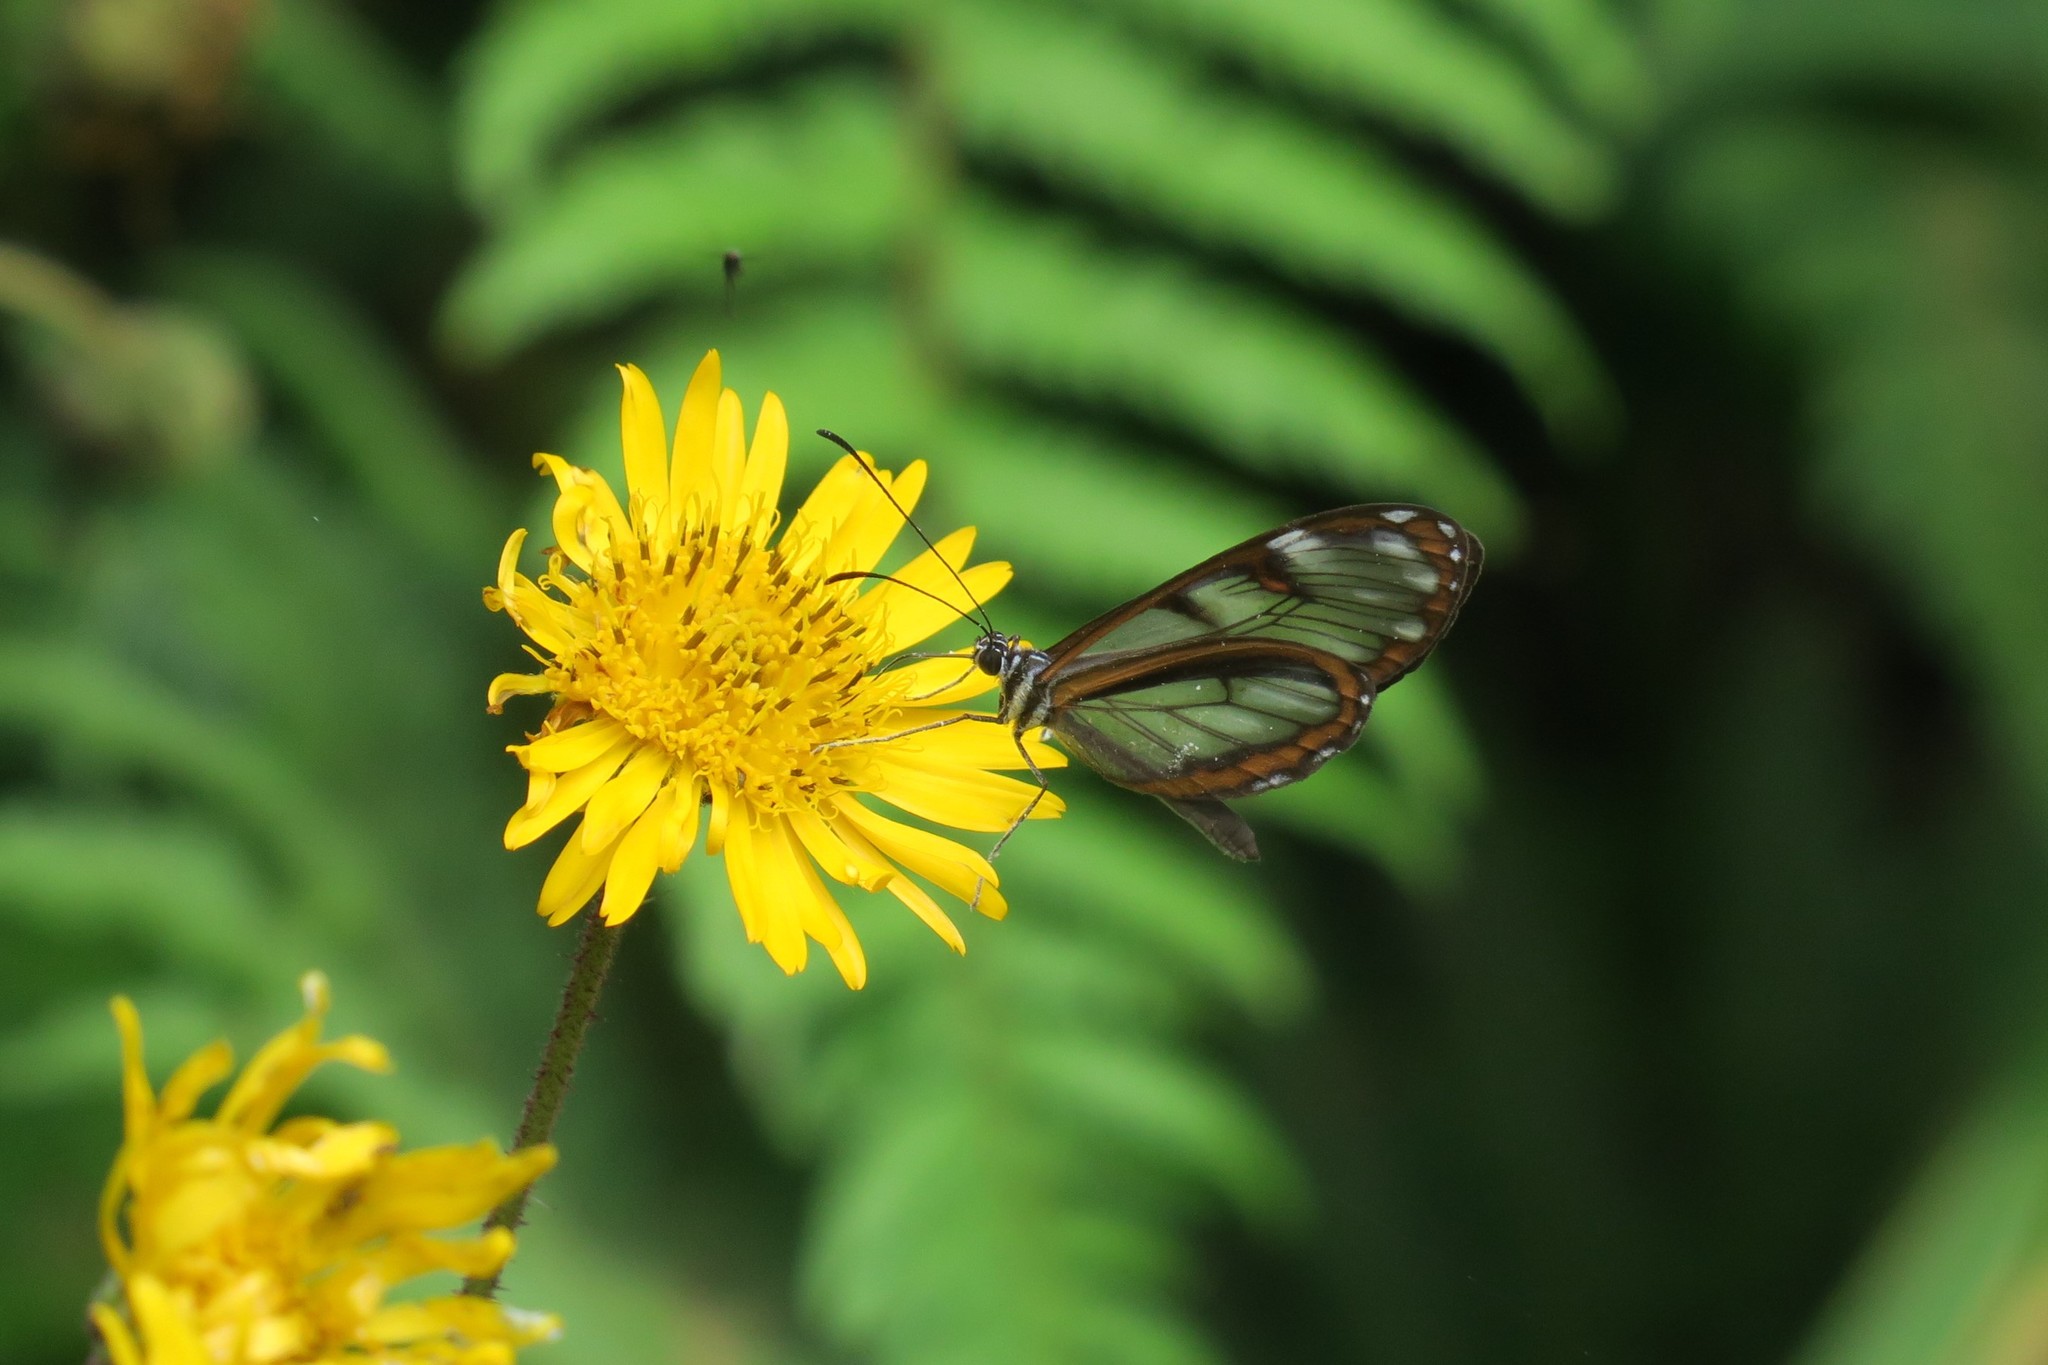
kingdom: Animalia
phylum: Arthropoda
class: Insecta
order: Lepidoptera
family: Nymphalidae
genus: Oleria
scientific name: Oleria tremona
